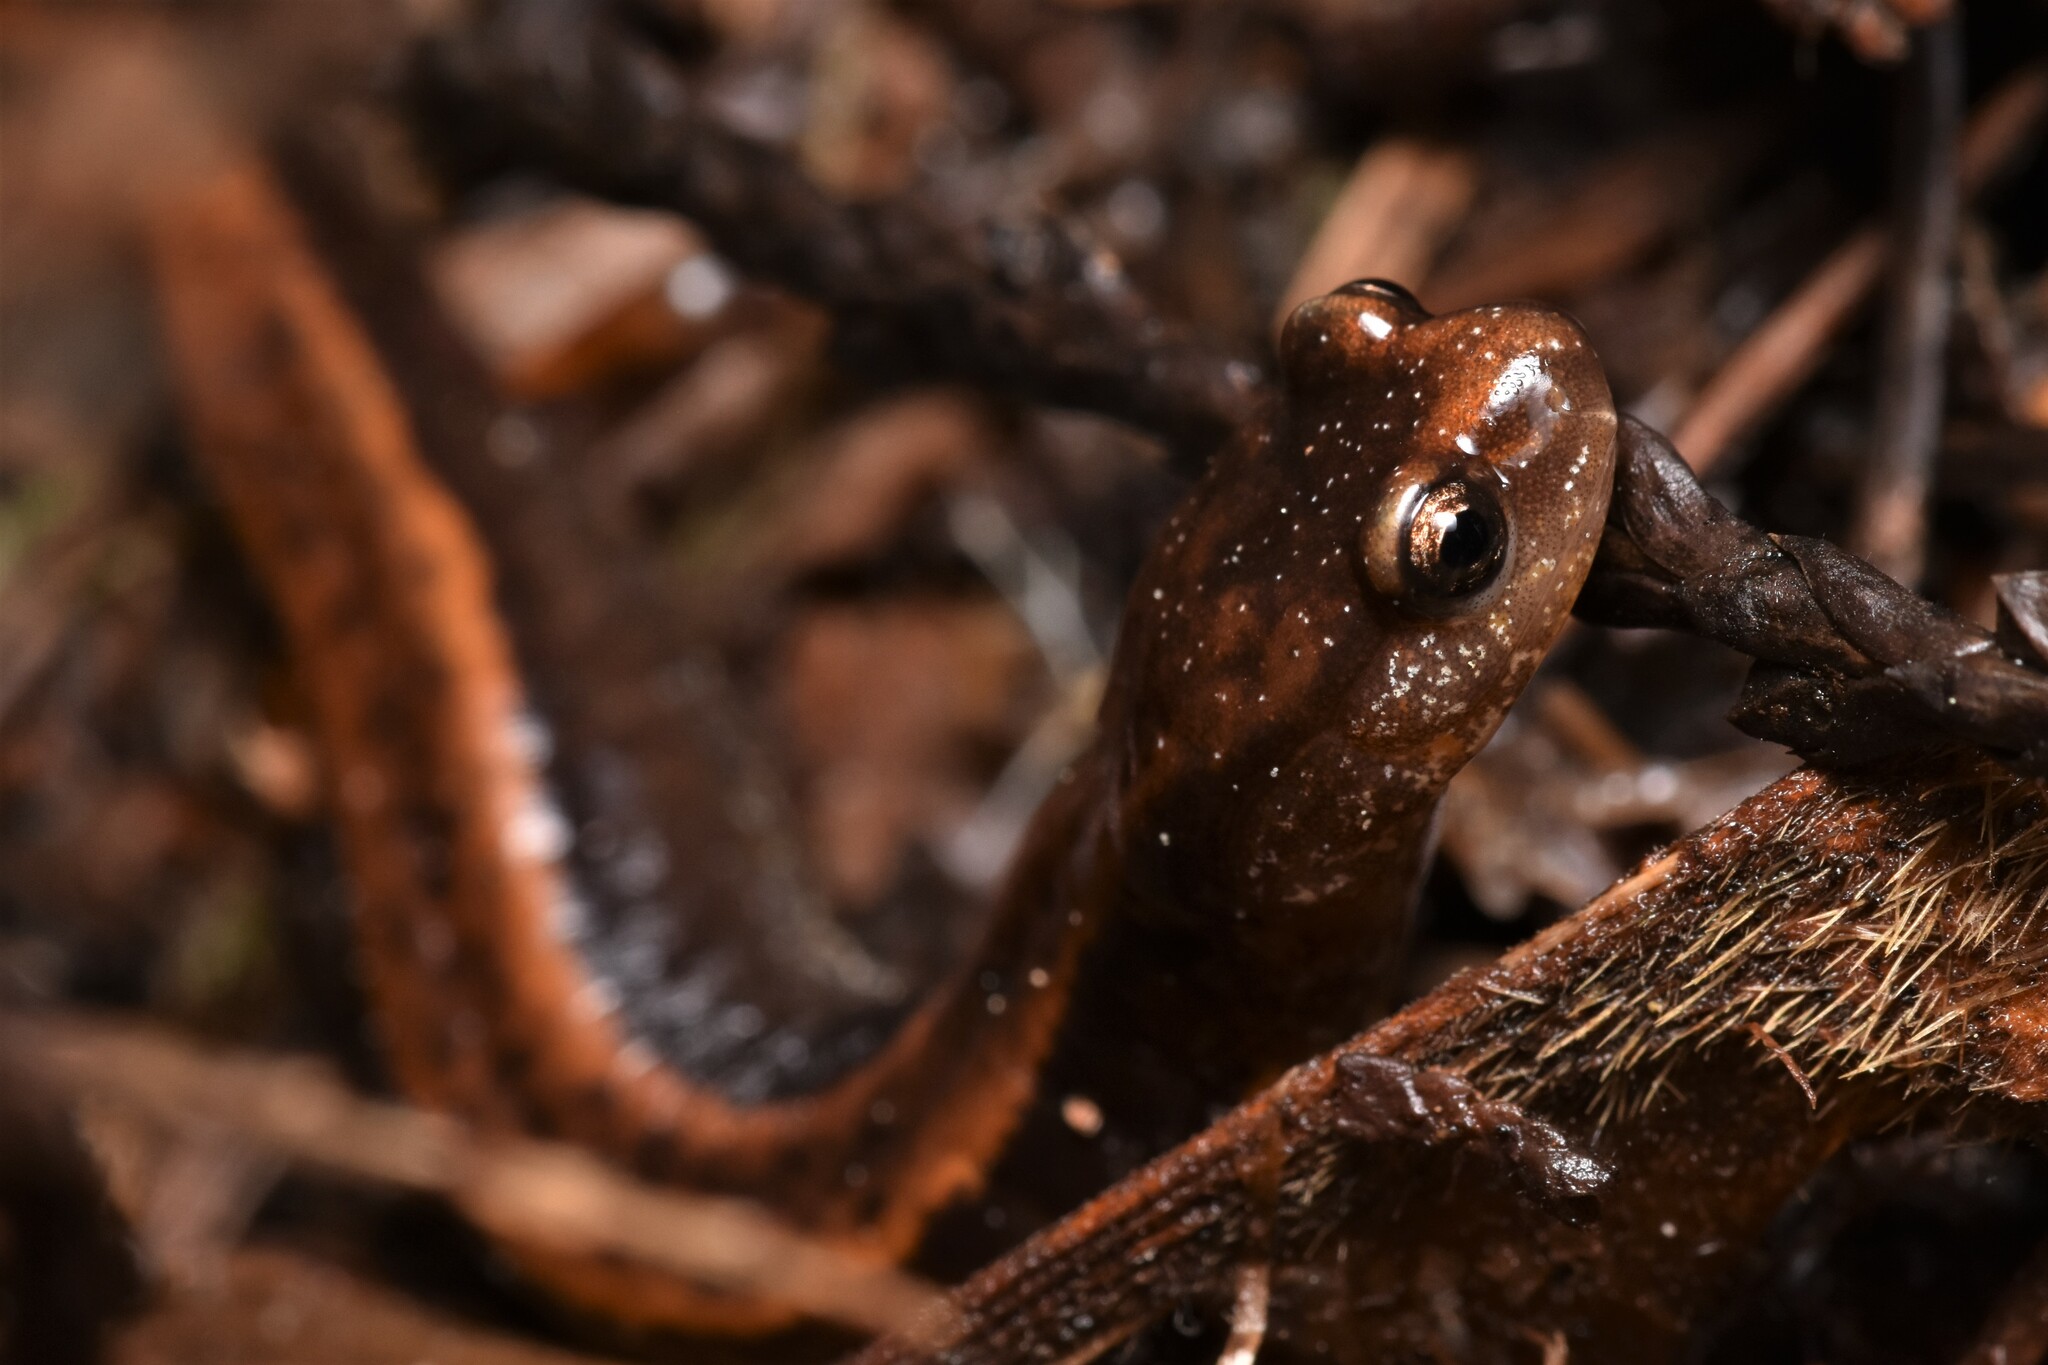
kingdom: Animalia
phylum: Chordata
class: Amphibia
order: Caudata
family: Plethodontidae
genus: Plethodon
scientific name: Plethodon vehiculum
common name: Western red-backed salamander
